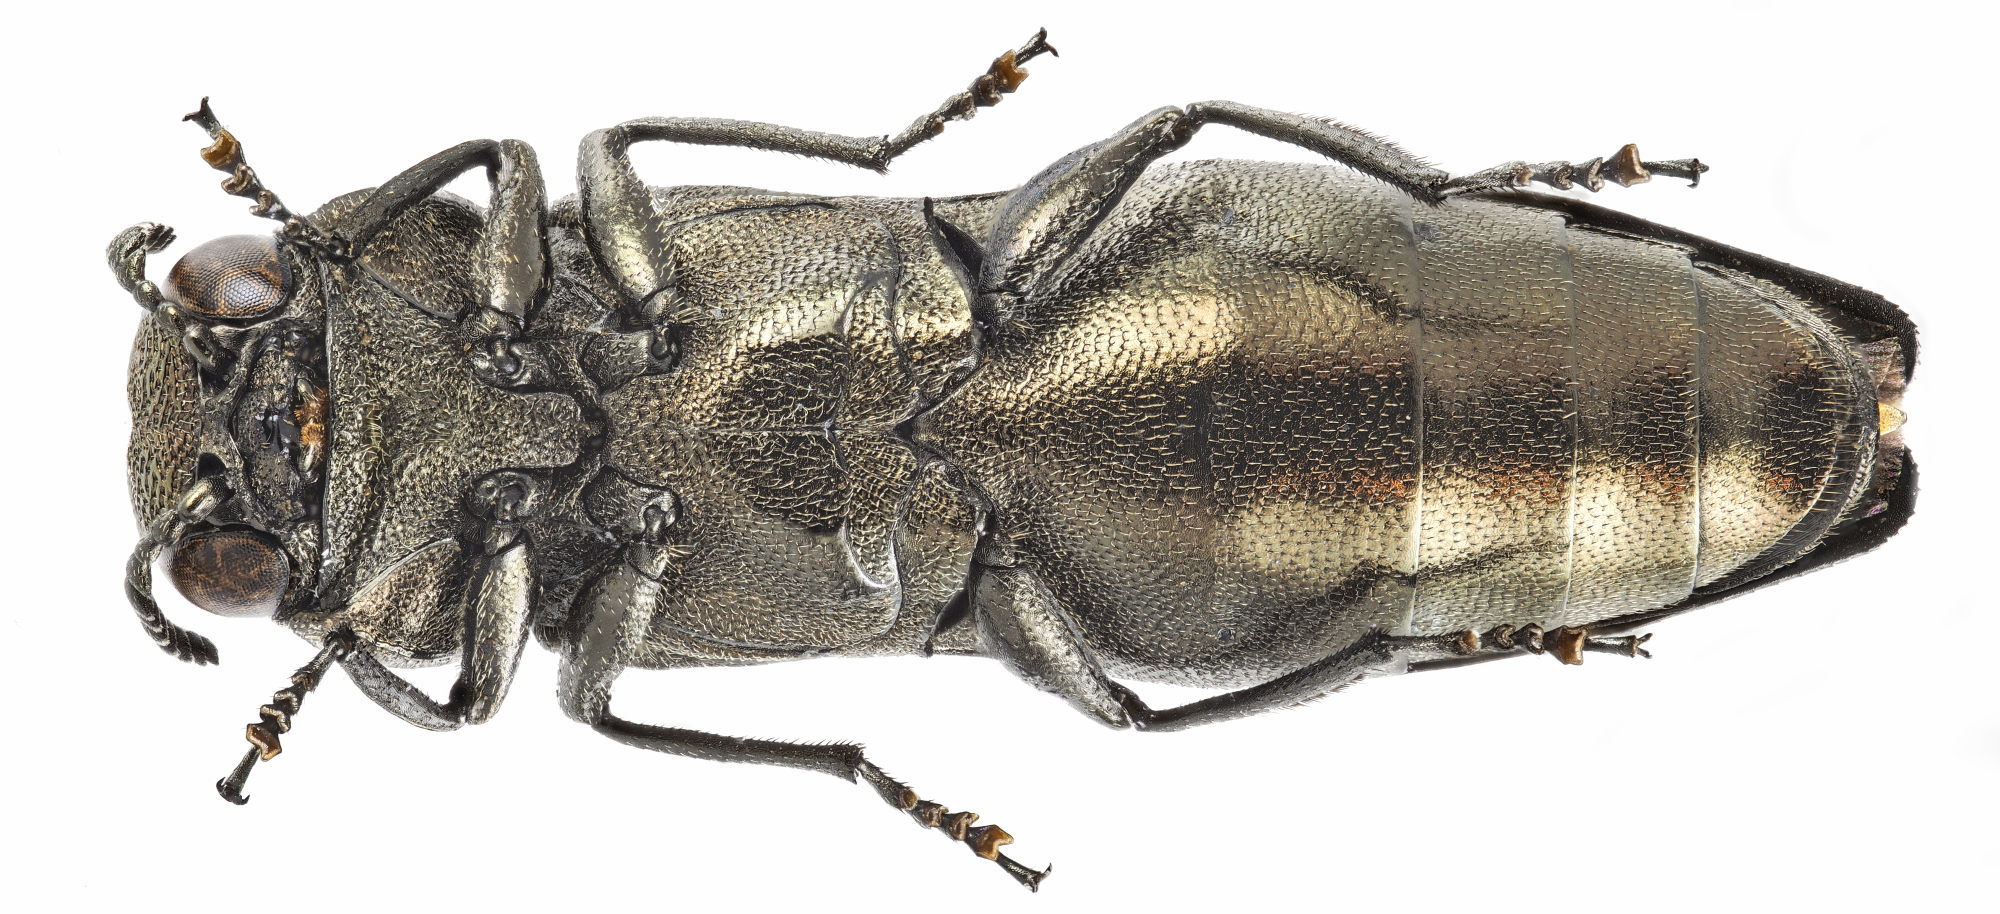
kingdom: Animalia
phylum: Arthropoda
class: Insecta
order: Coleoptera
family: Buprestidae
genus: Agrilus
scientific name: Agrilus integerrimus
